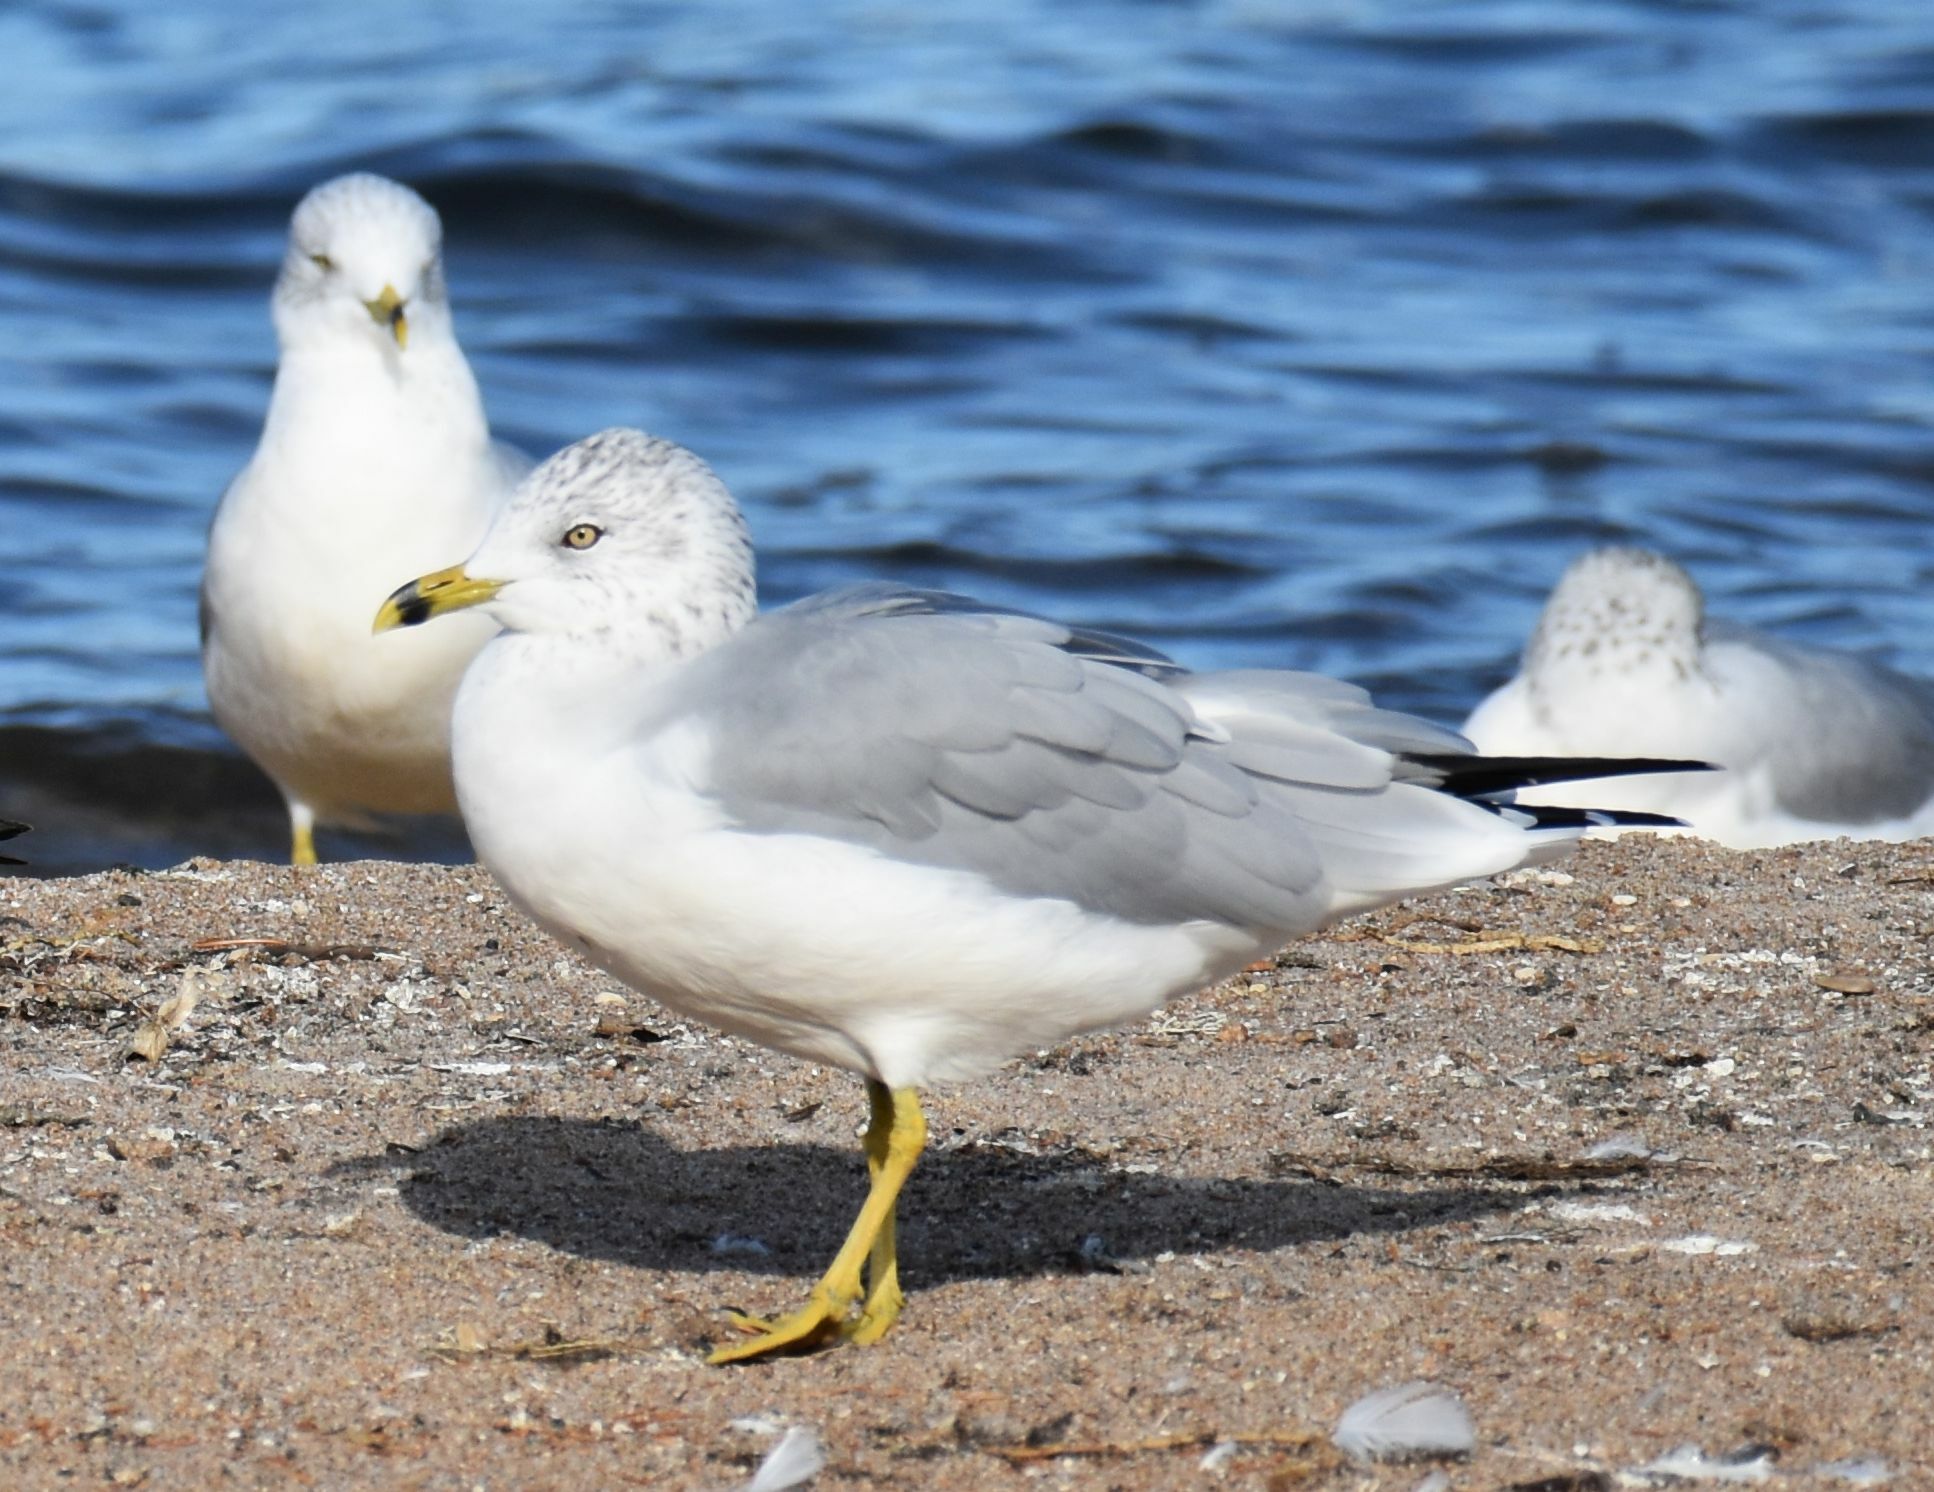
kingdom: Animalia
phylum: Chordata
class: Aves
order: Charadriiformes
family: Laridae
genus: Larus
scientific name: Larus delawarensis
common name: Ring-billed gull
